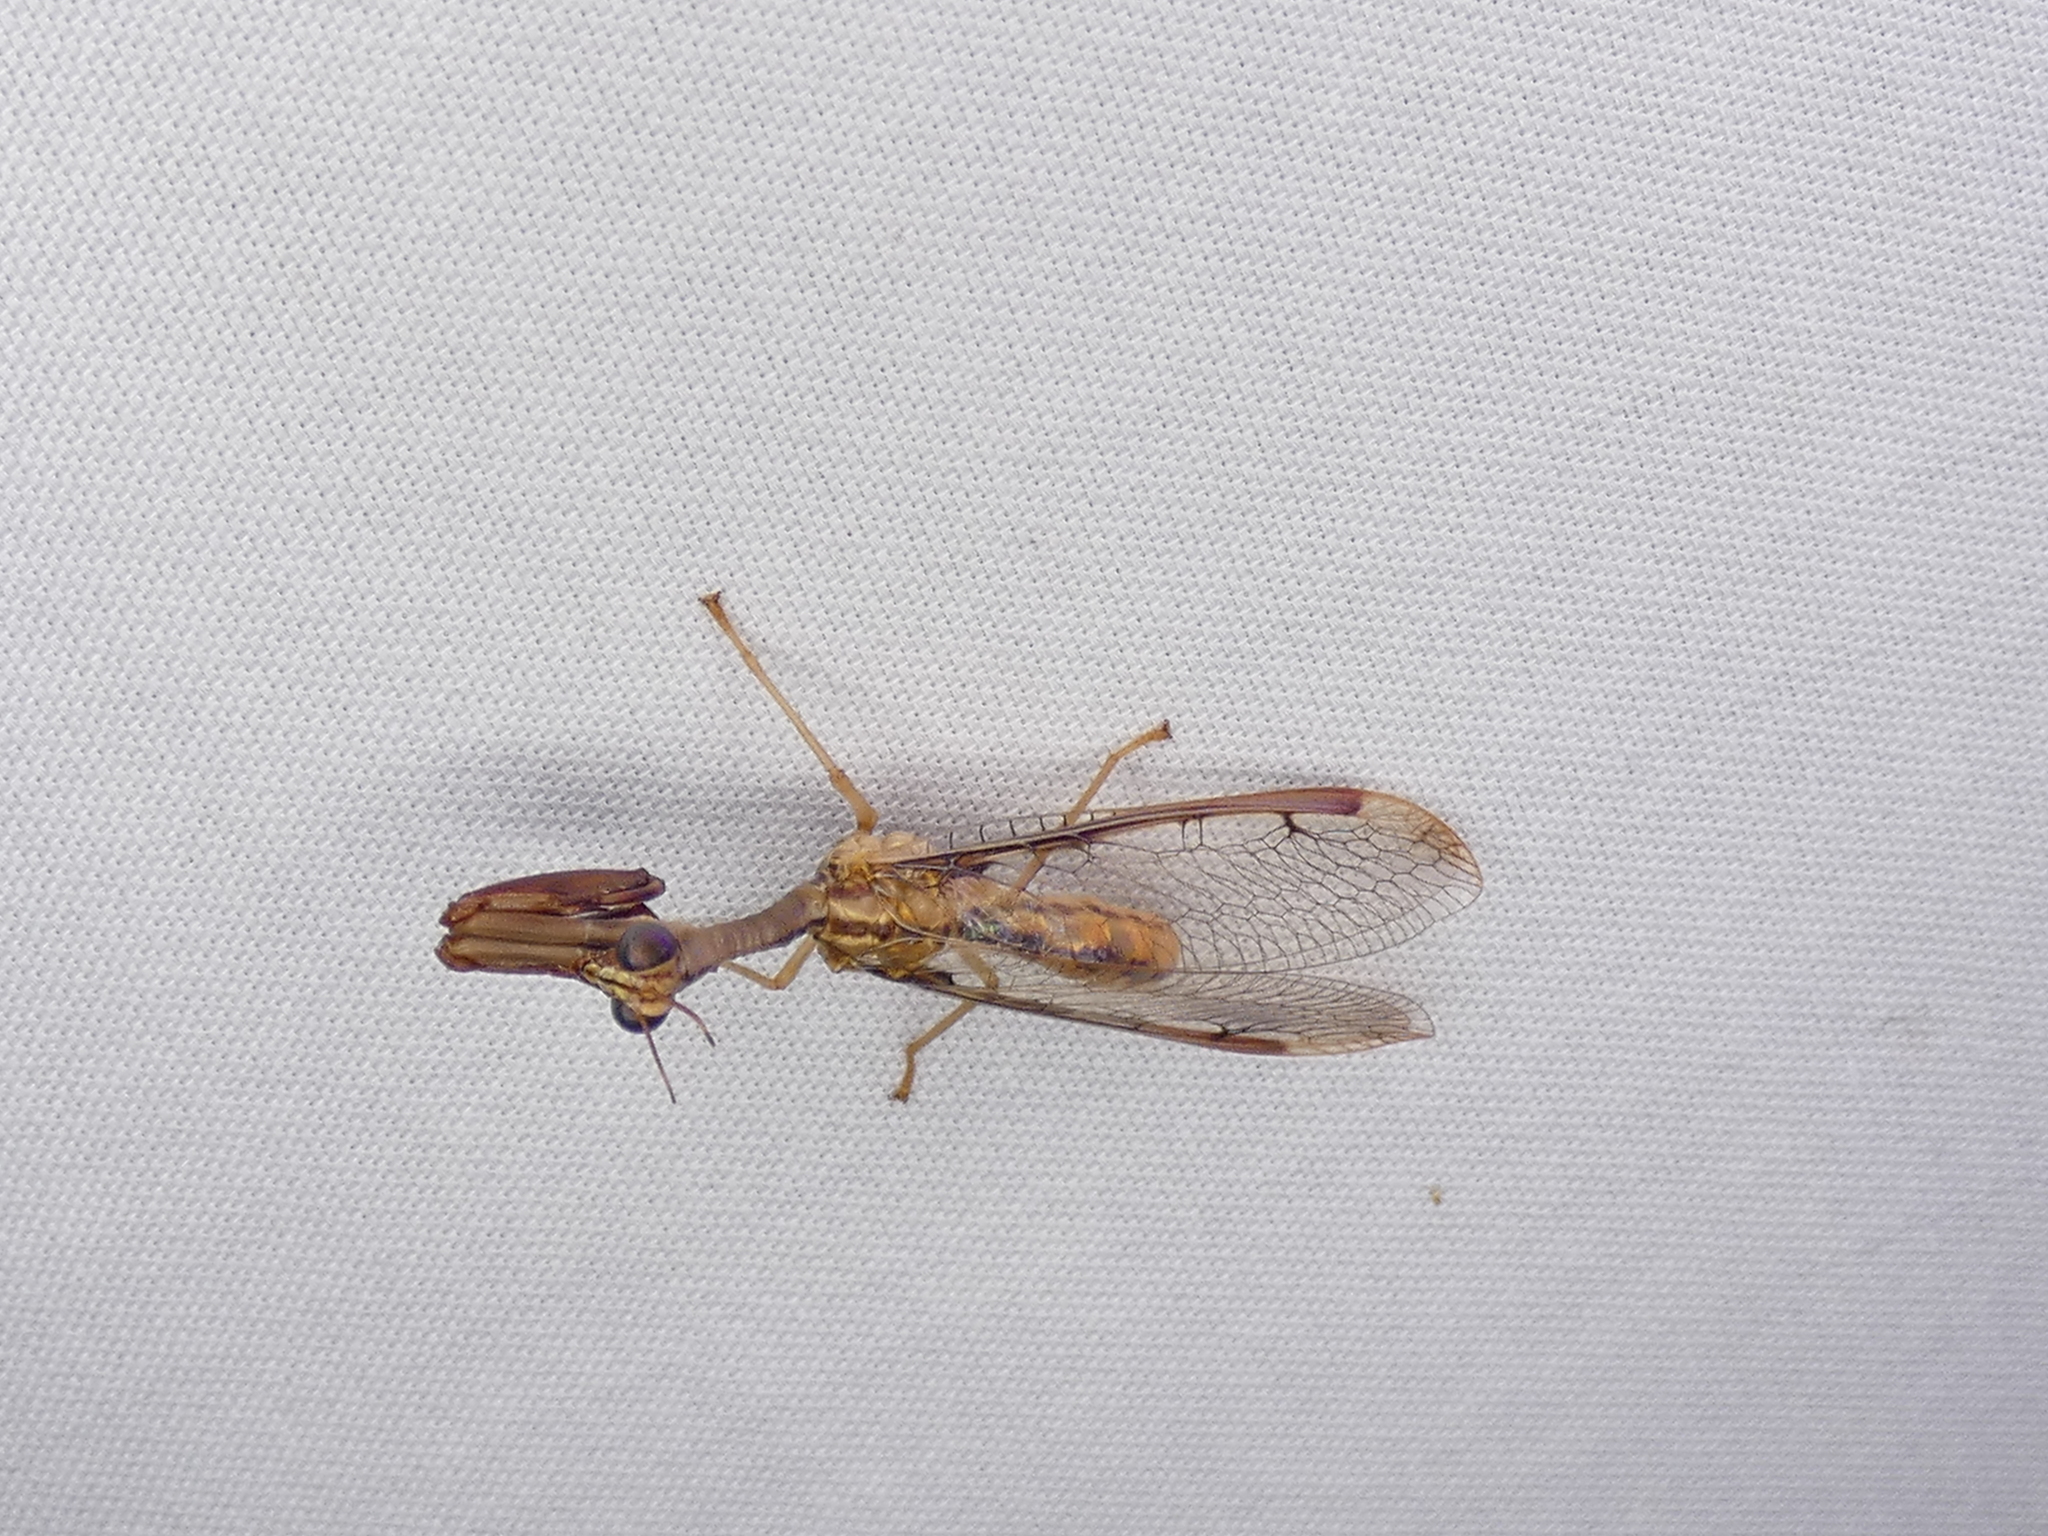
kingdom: Animalia
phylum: Arthropoda
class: Insecta
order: Neuroptera
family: Mantispidae
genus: Dicromantispa
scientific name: Dicromantispa interrupta
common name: Four-spotted mantidfly
